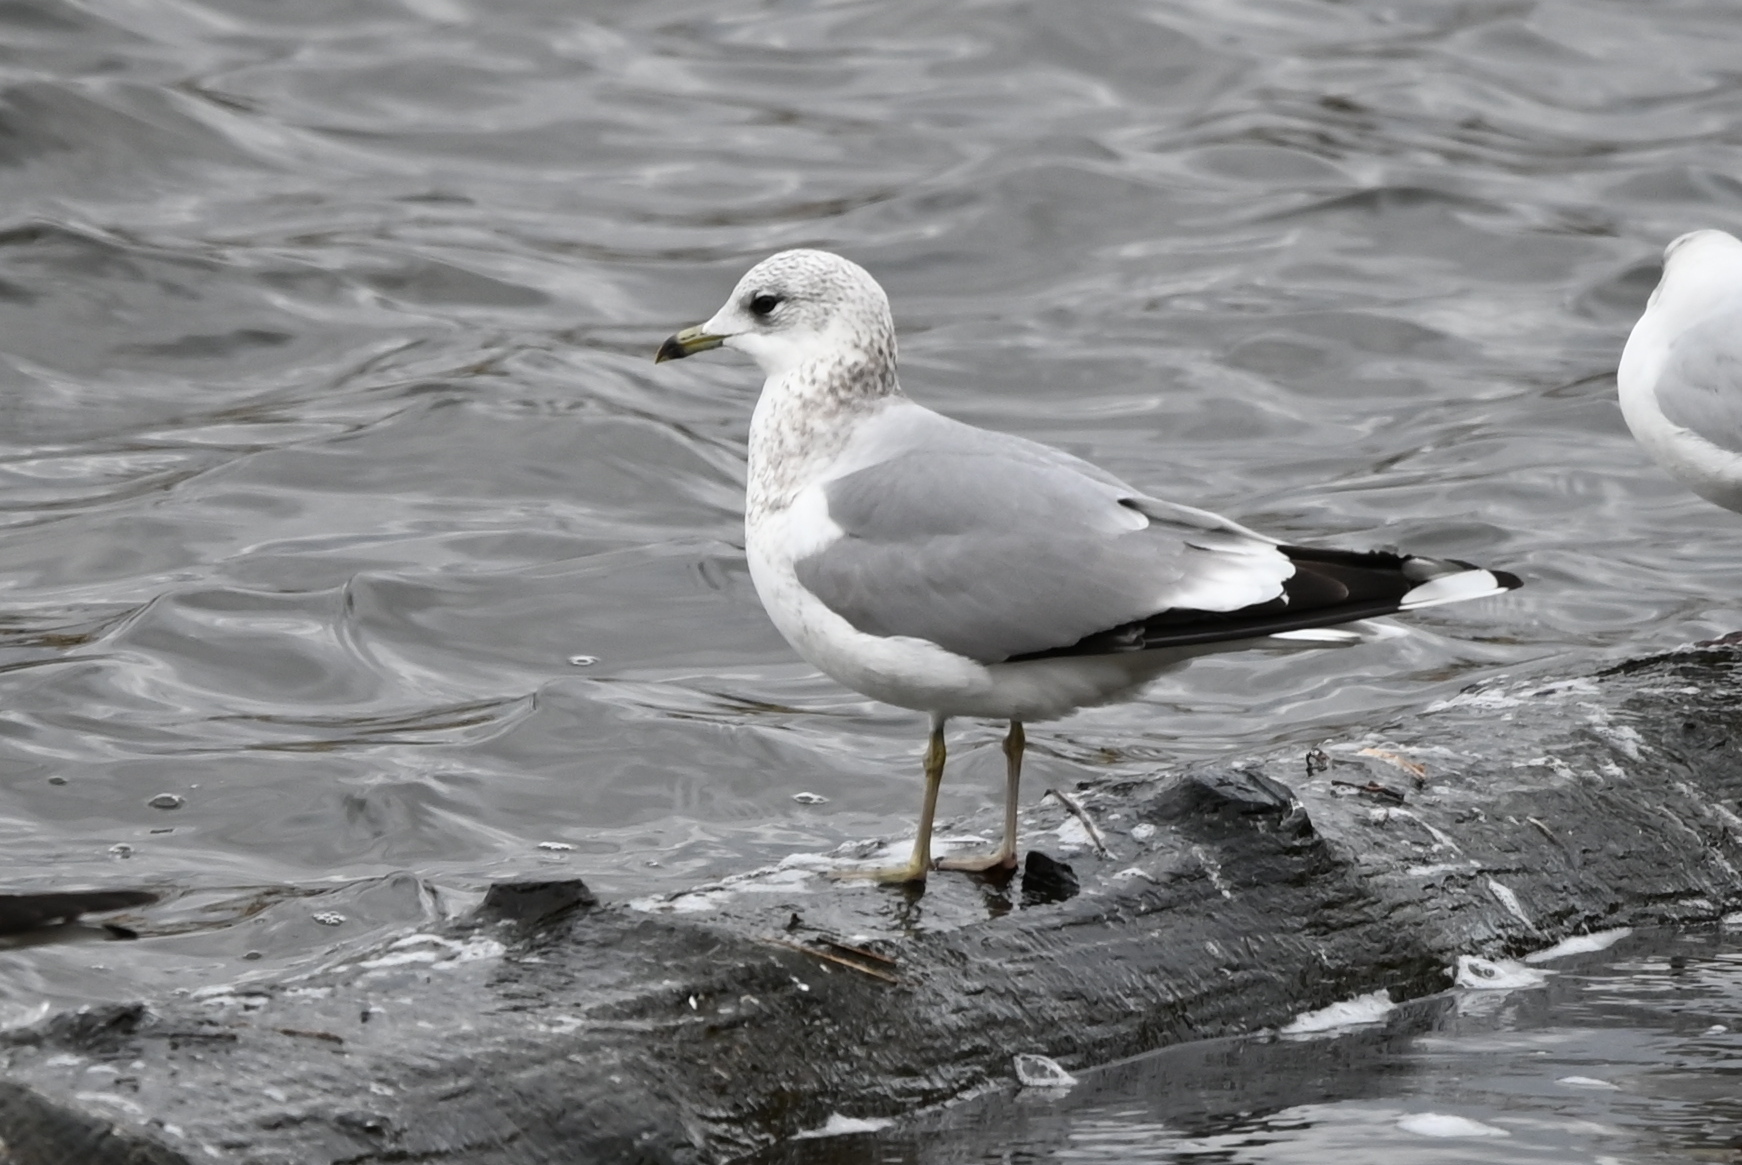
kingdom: Animalia
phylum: Chordata
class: Aves
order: Charadriiformes
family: Laridae
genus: Larus
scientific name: Larus canus
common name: Mew gull
